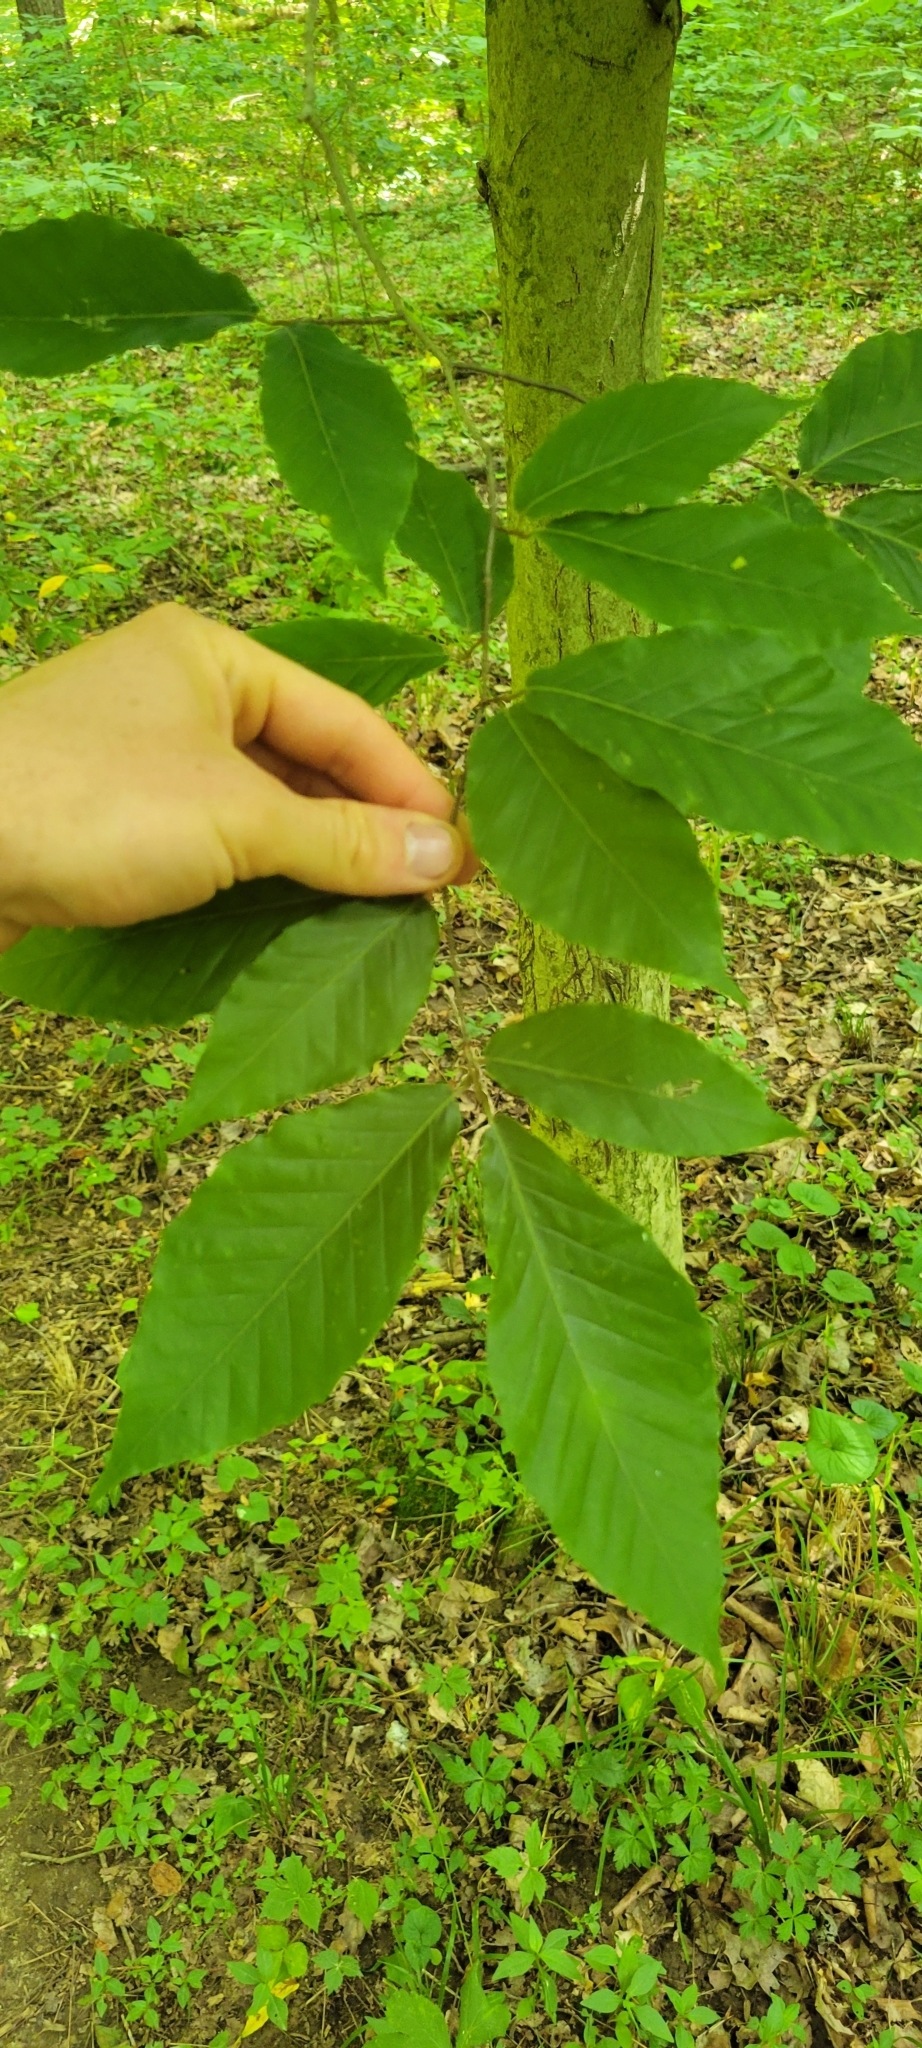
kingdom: Plantae
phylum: Tracheophyta
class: Magnoliopsida
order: Fagales
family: Fagaceae
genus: Fagus
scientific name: Fagus grandifolia
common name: American beech
